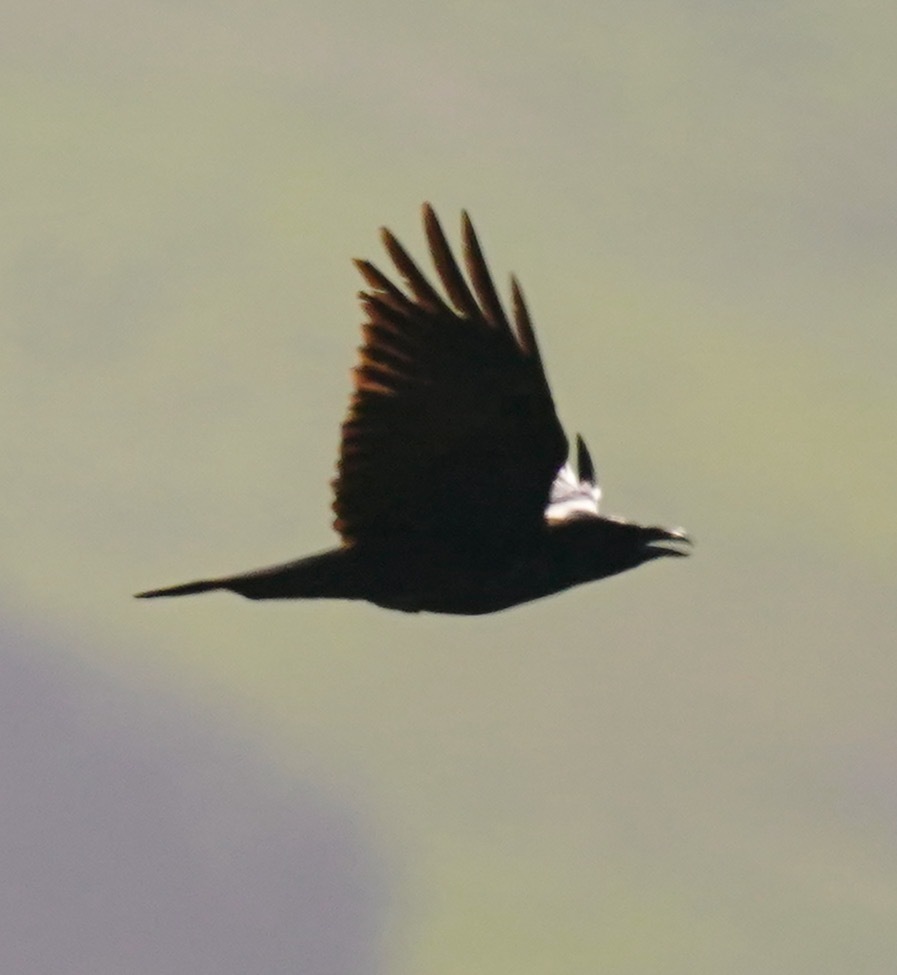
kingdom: Animalia
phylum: Chordata
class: Aves
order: Passeriformes
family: Corvidae
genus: Corvus
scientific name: Corvus corax
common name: Common raven
